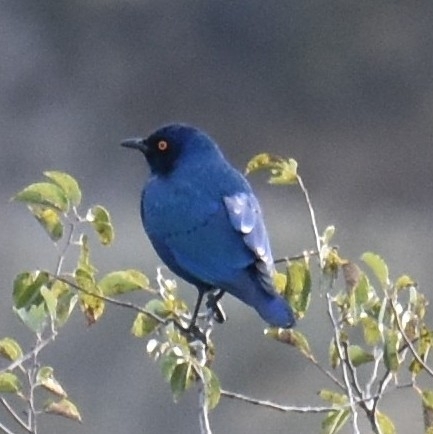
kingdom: Animalia
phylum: Chordata
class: Aves
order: Passeriformes
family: Sturnidae
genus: Lamprotornis
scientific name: Lamprotornis nitens
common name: Cape starling
